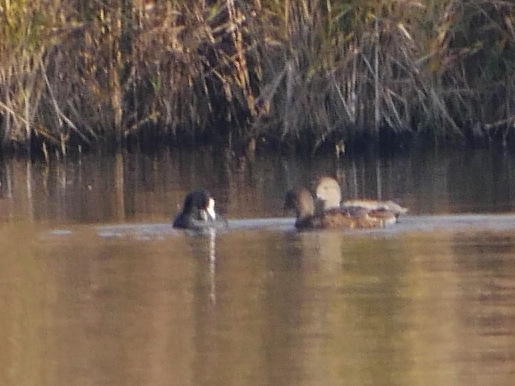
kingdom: Animalia
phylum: Chordata
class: Aves
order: Anseriformes
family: Anatidae
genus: Mareca
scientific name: Mareca strepera
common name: Gadwall
